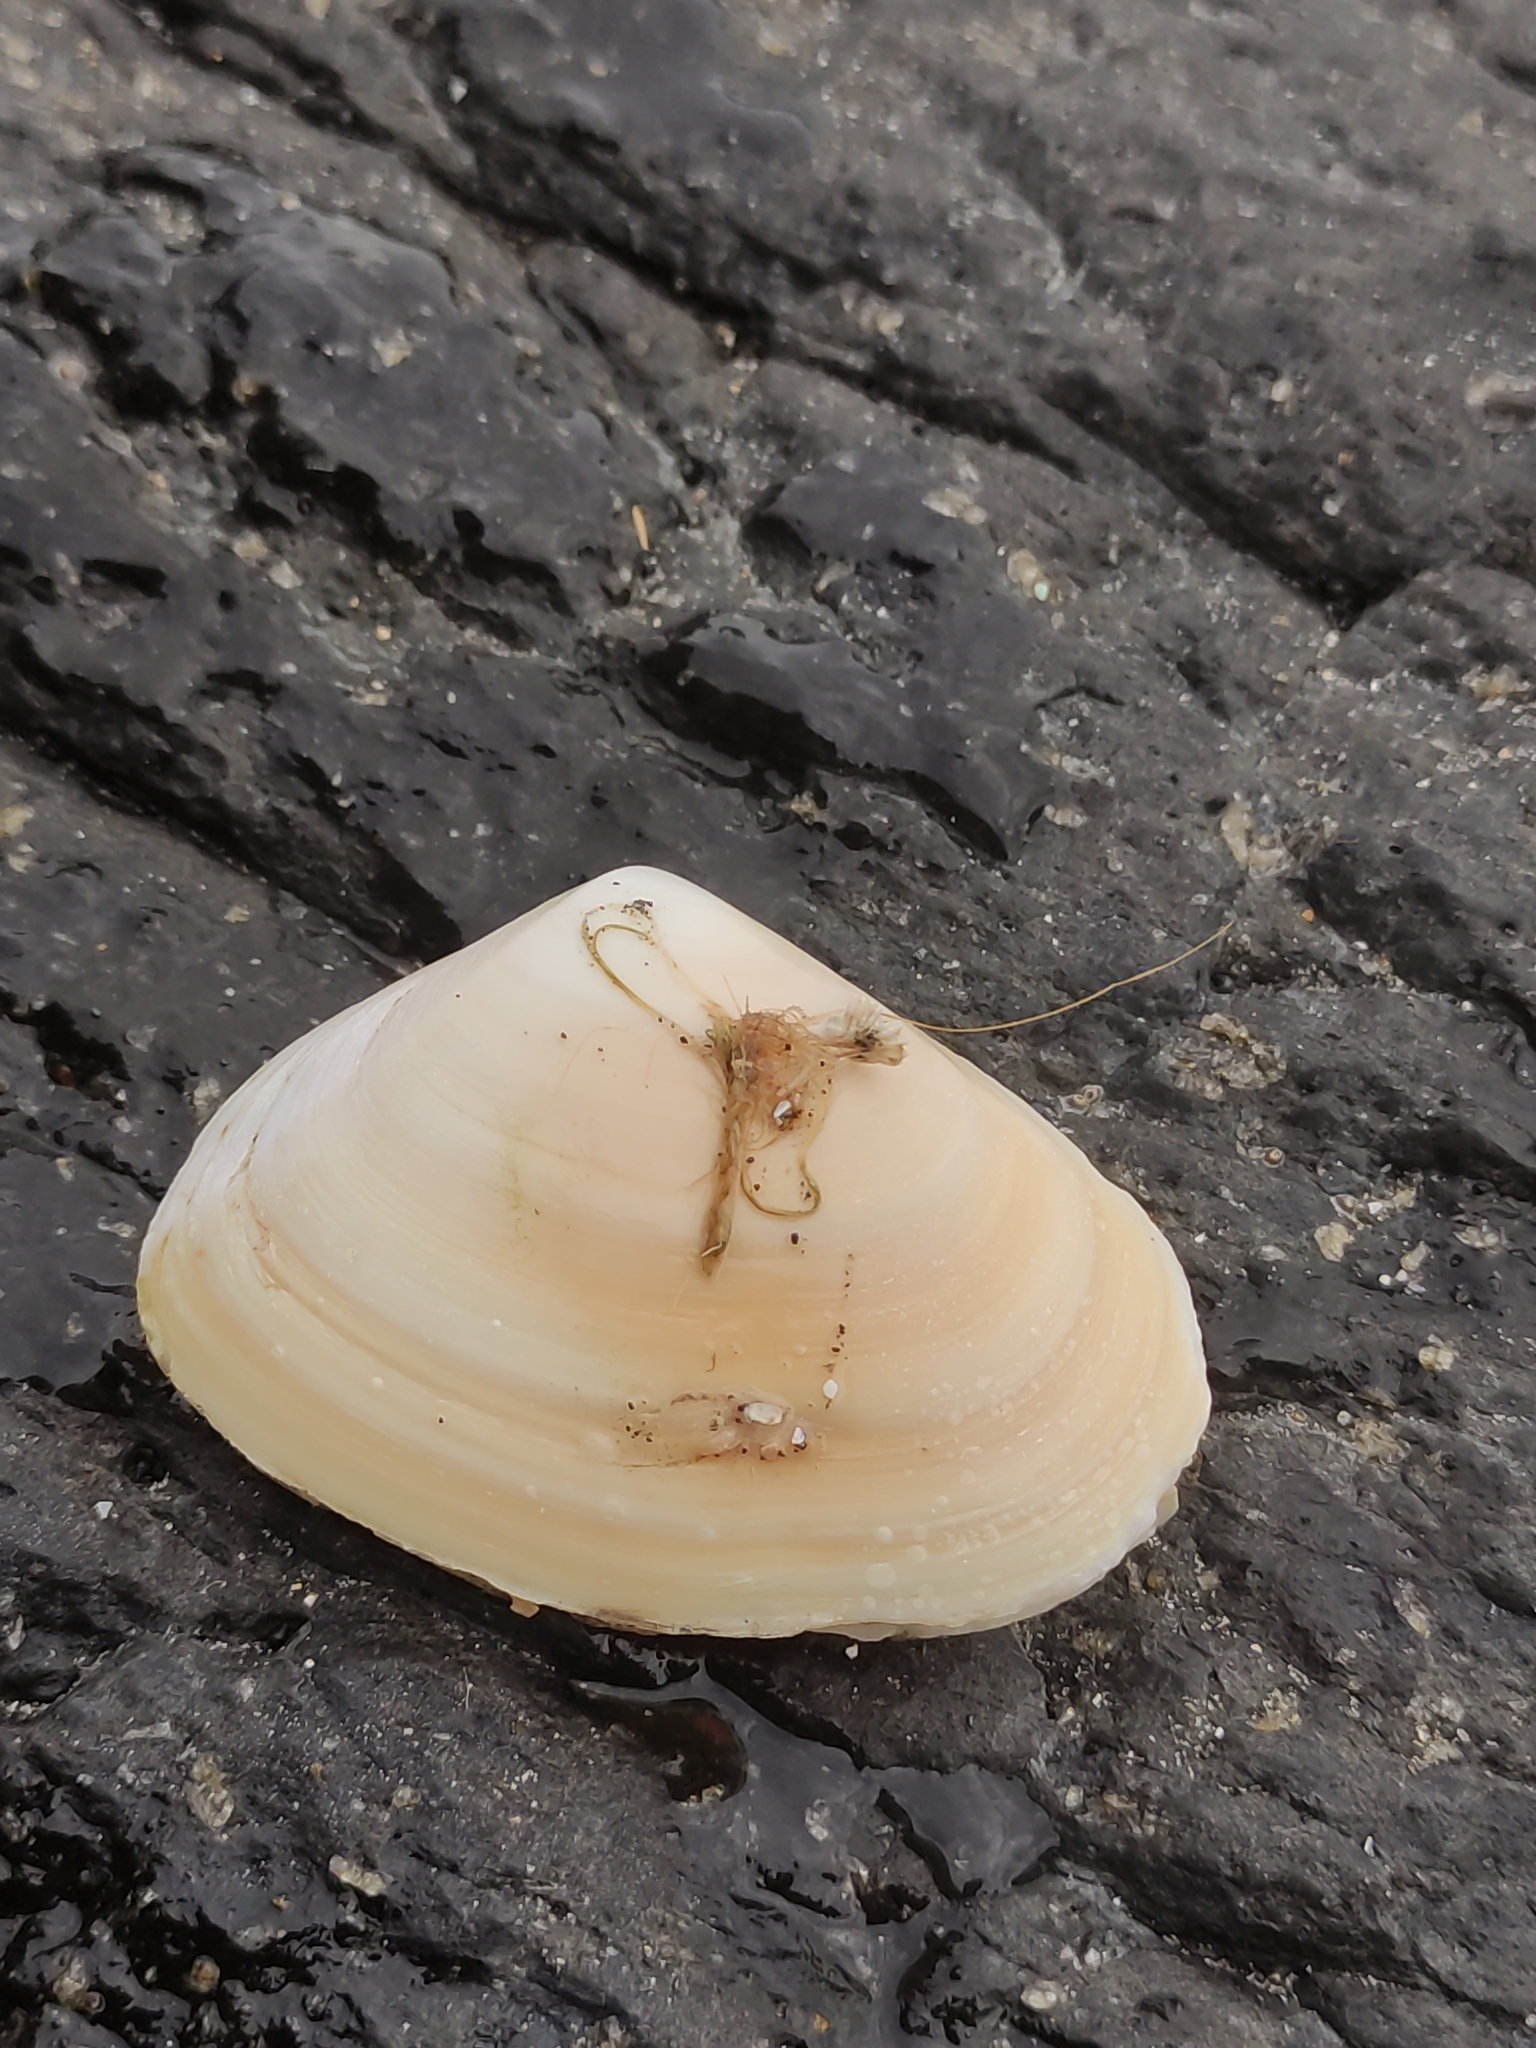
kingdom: Animalia
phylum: Mollusca
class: Bivalvia
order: Venerida
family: Mesodesmatidae
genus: Paphies
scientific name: Paphies donacina
